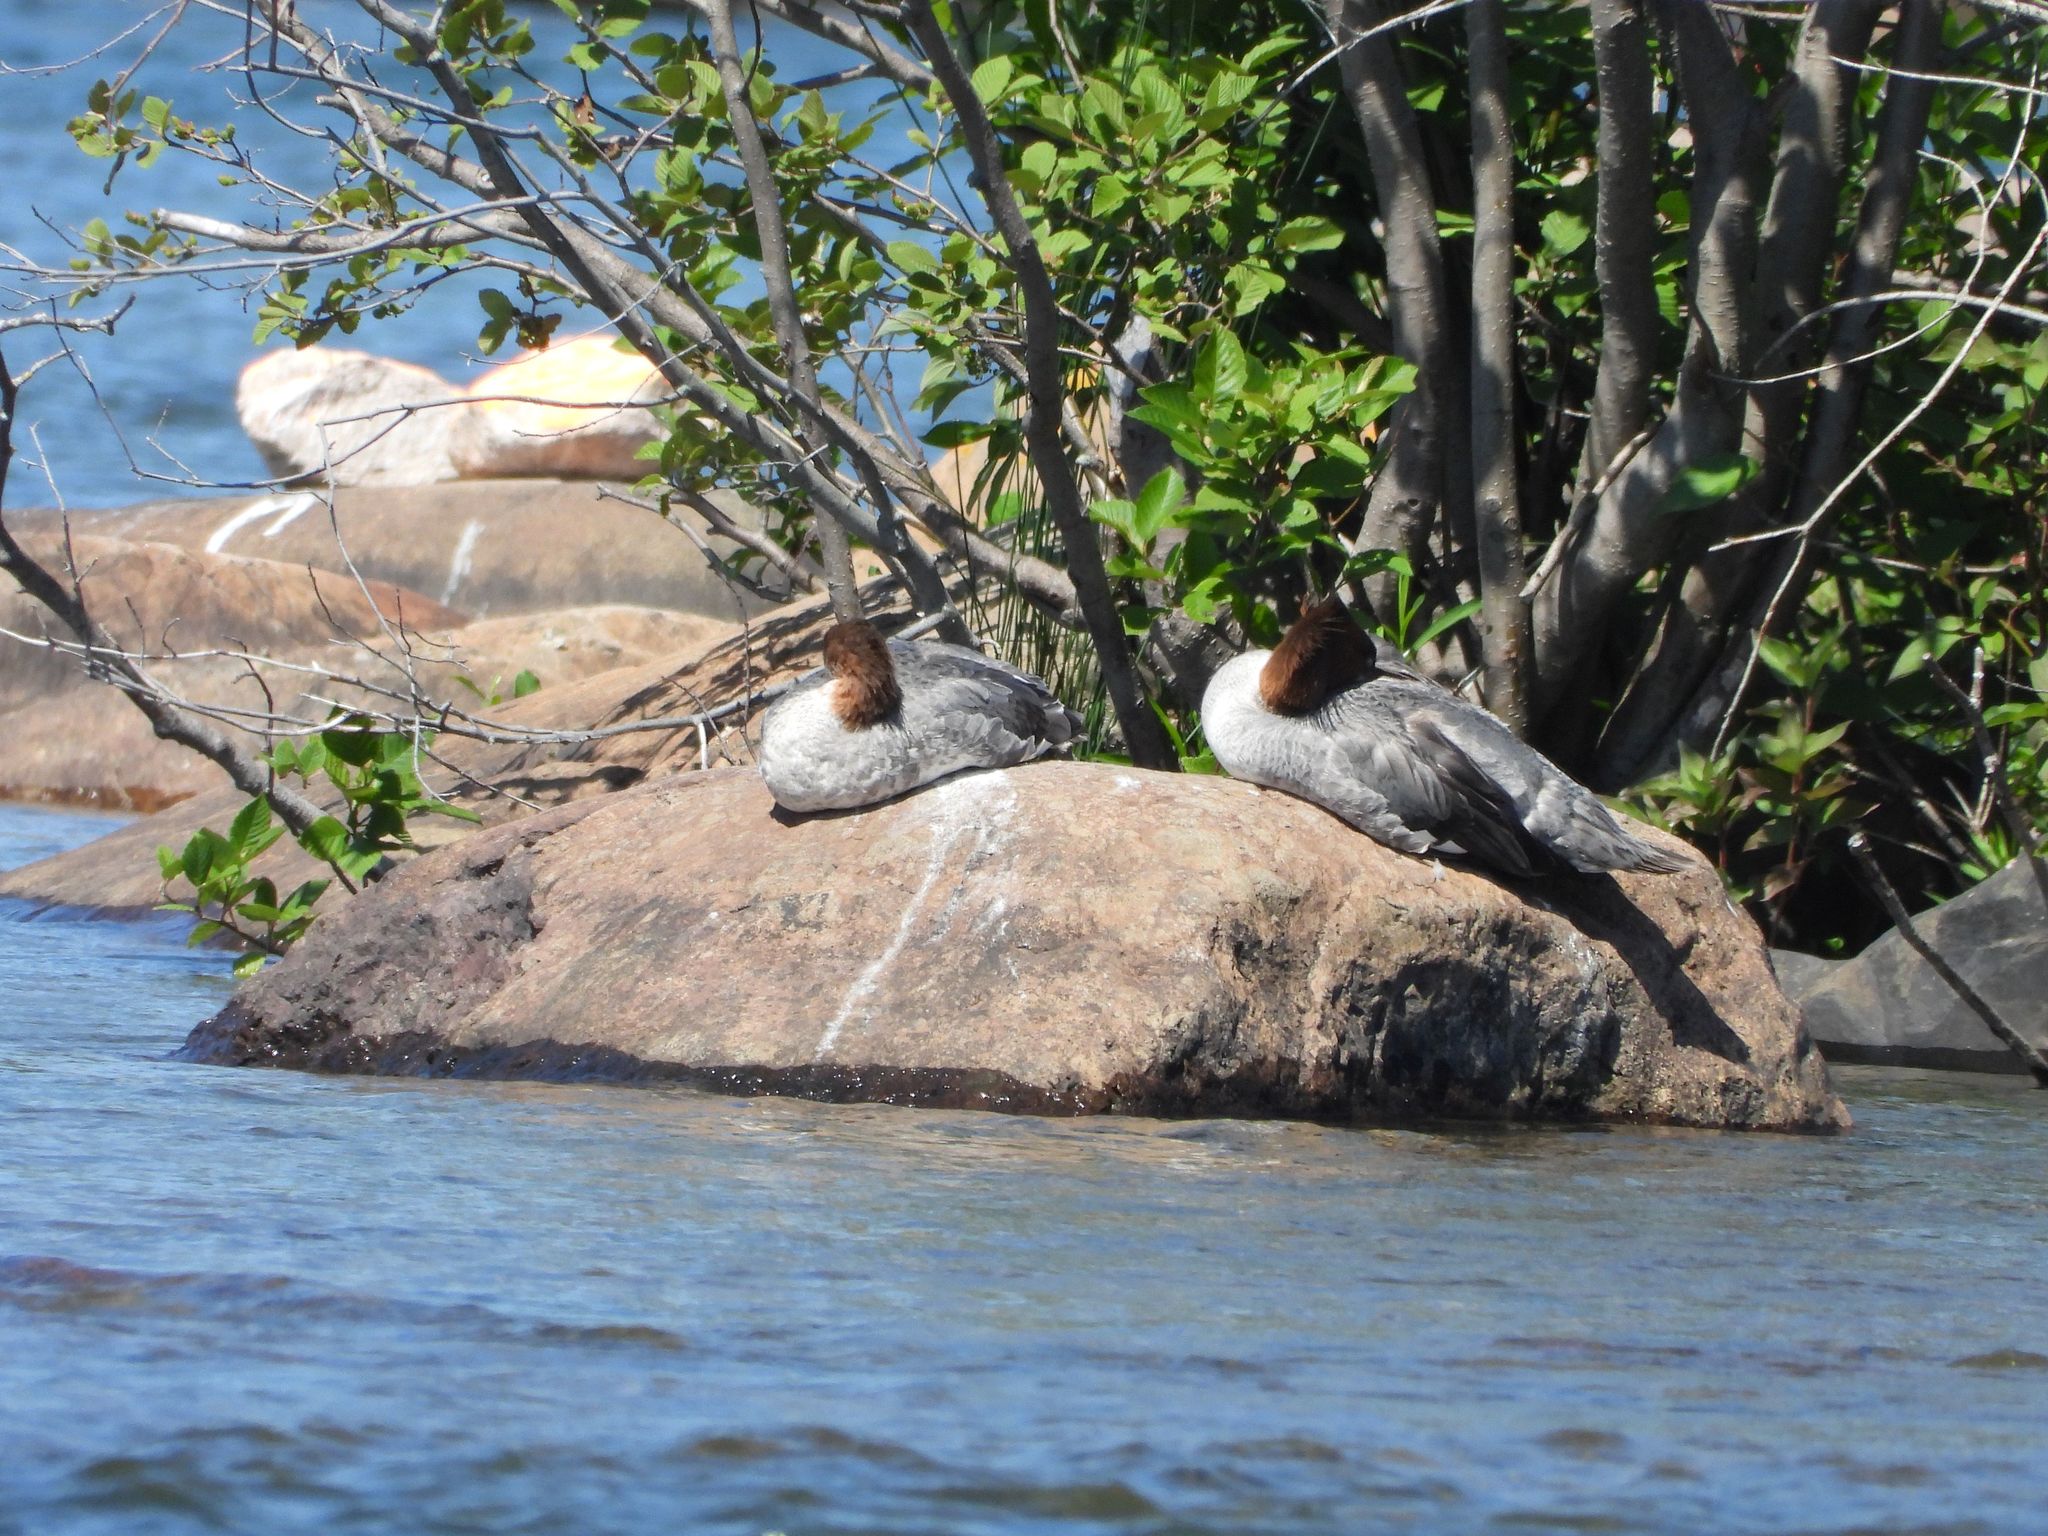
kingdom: Animalia
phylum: Chordata
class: Aves
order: Anseriformes
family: Anatidae
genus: Mergus
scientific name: Mergus merganser
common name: Common merganser
